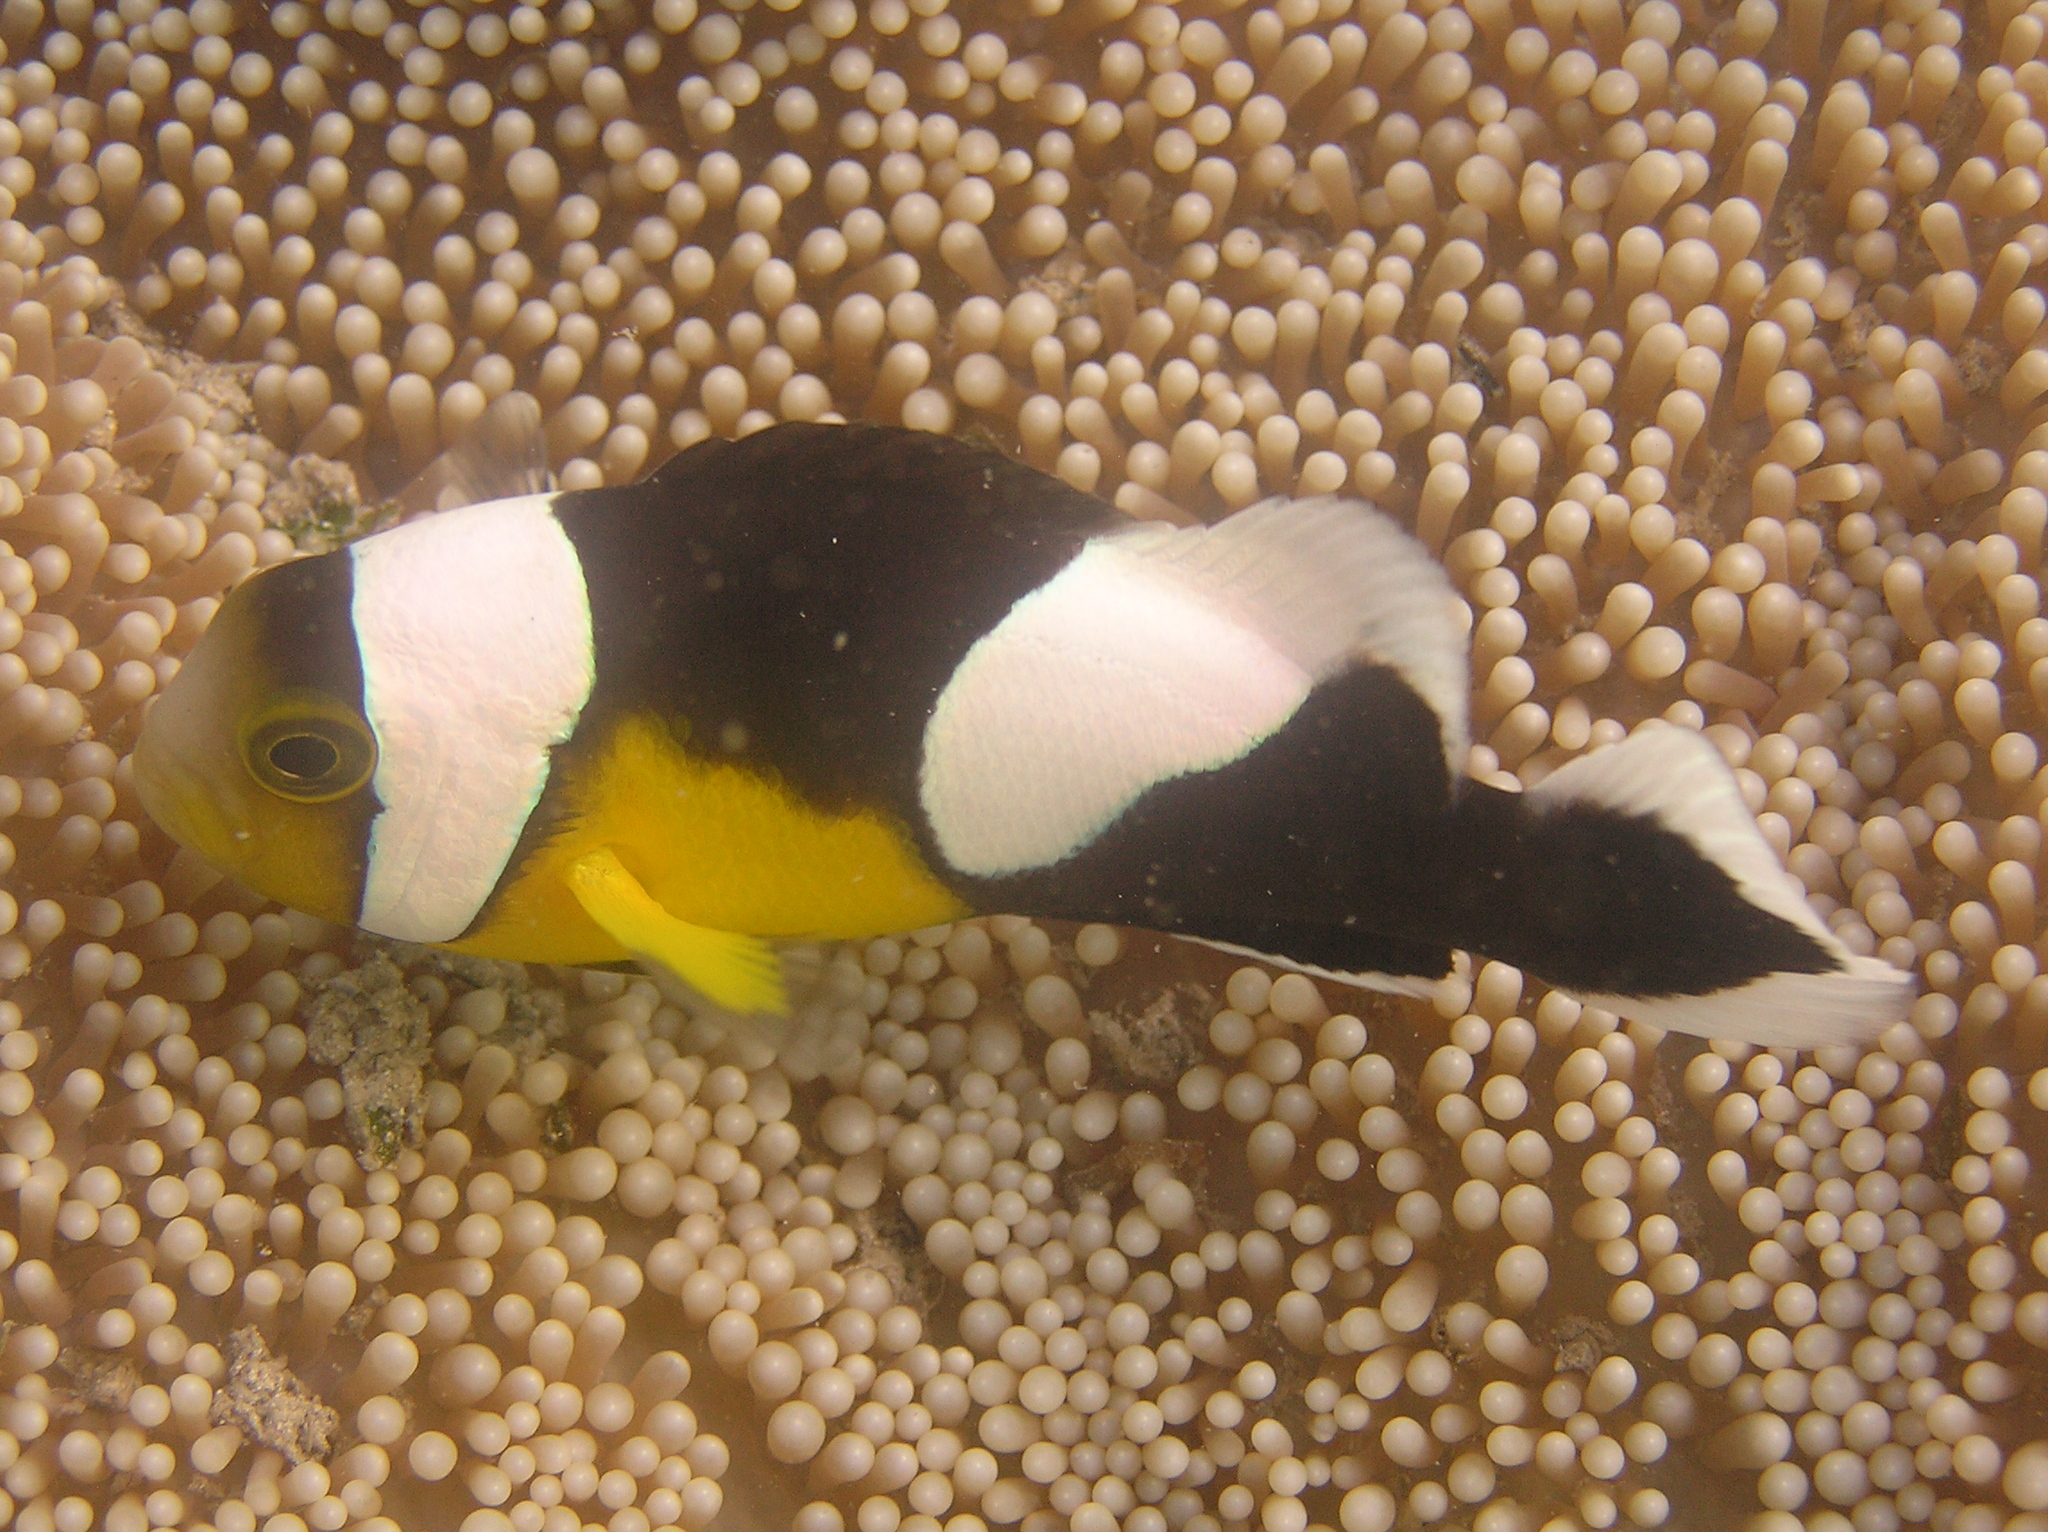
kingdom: Animalia
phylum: Chordata
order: Perciformes
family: Pomacentridae
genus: Amphiprion
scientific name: Amphiprion polymnus
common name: Saddleback anemonefish
